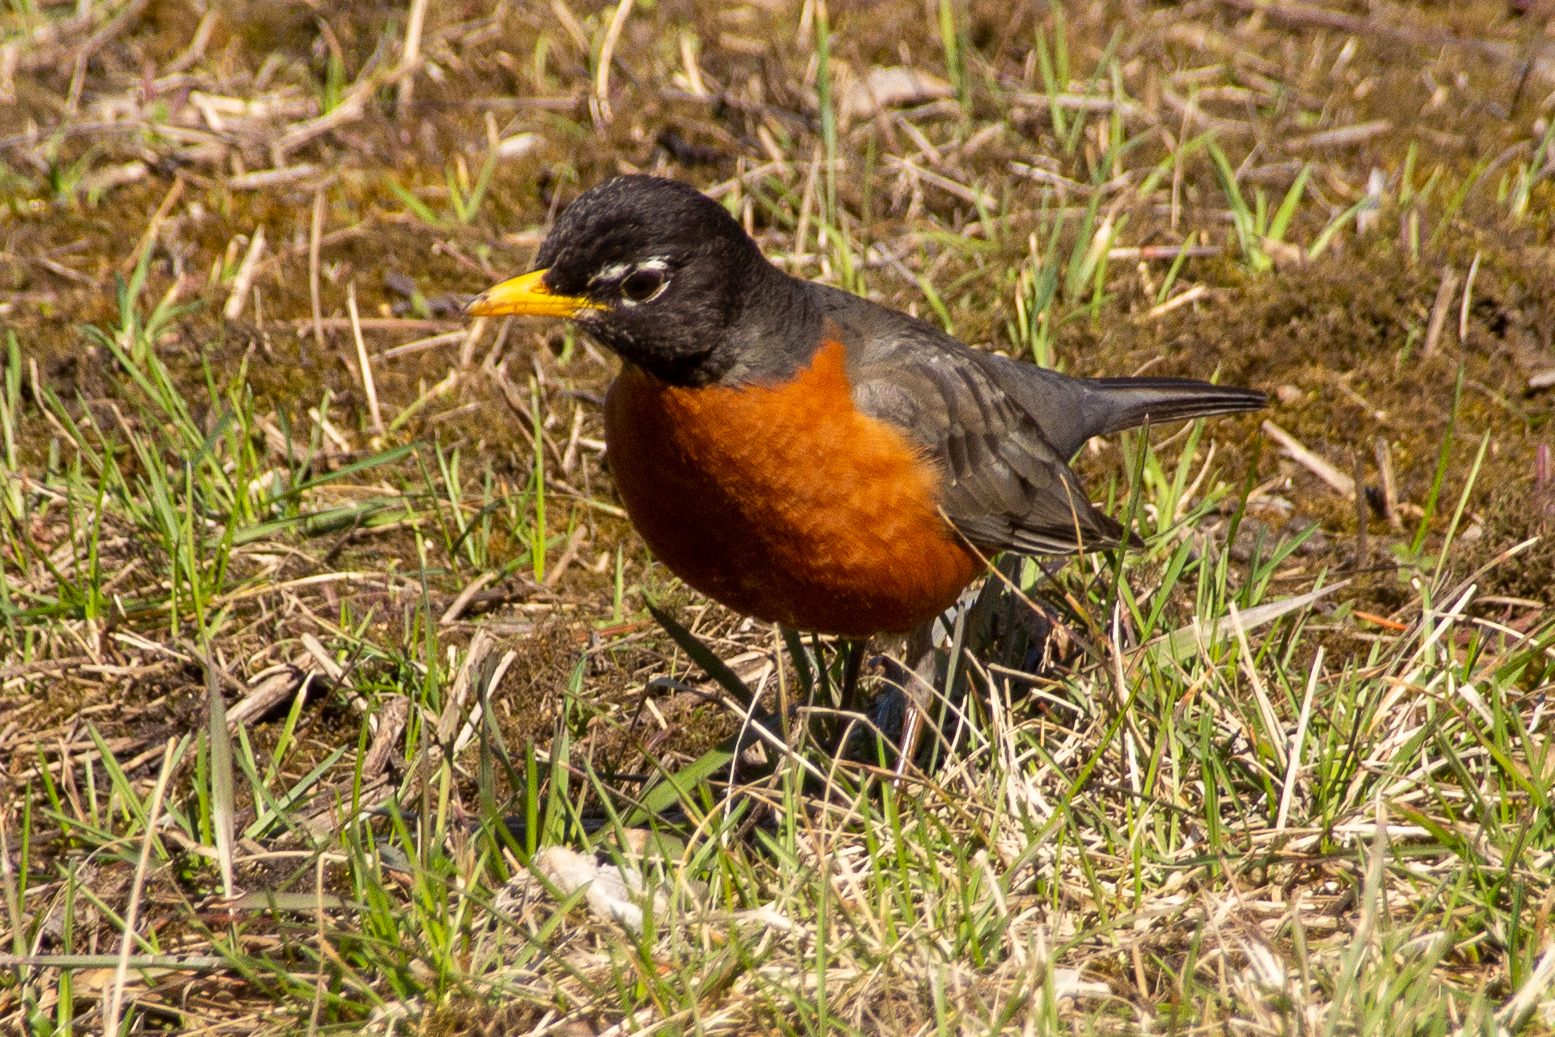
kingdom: Animalia
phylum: Chordata
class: Aves
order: Passeriformes
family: Turdidae
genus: Turdus
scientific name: Turdus migratorius
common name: American robin
